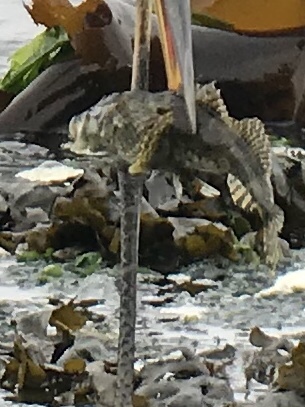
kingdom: Animalia
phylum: Chordata
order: Scorpaeniformes
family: Cottidae
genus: Myoxocephalus
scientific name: Myoxocephalus polyacanthocephalus
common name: Great sculpin
